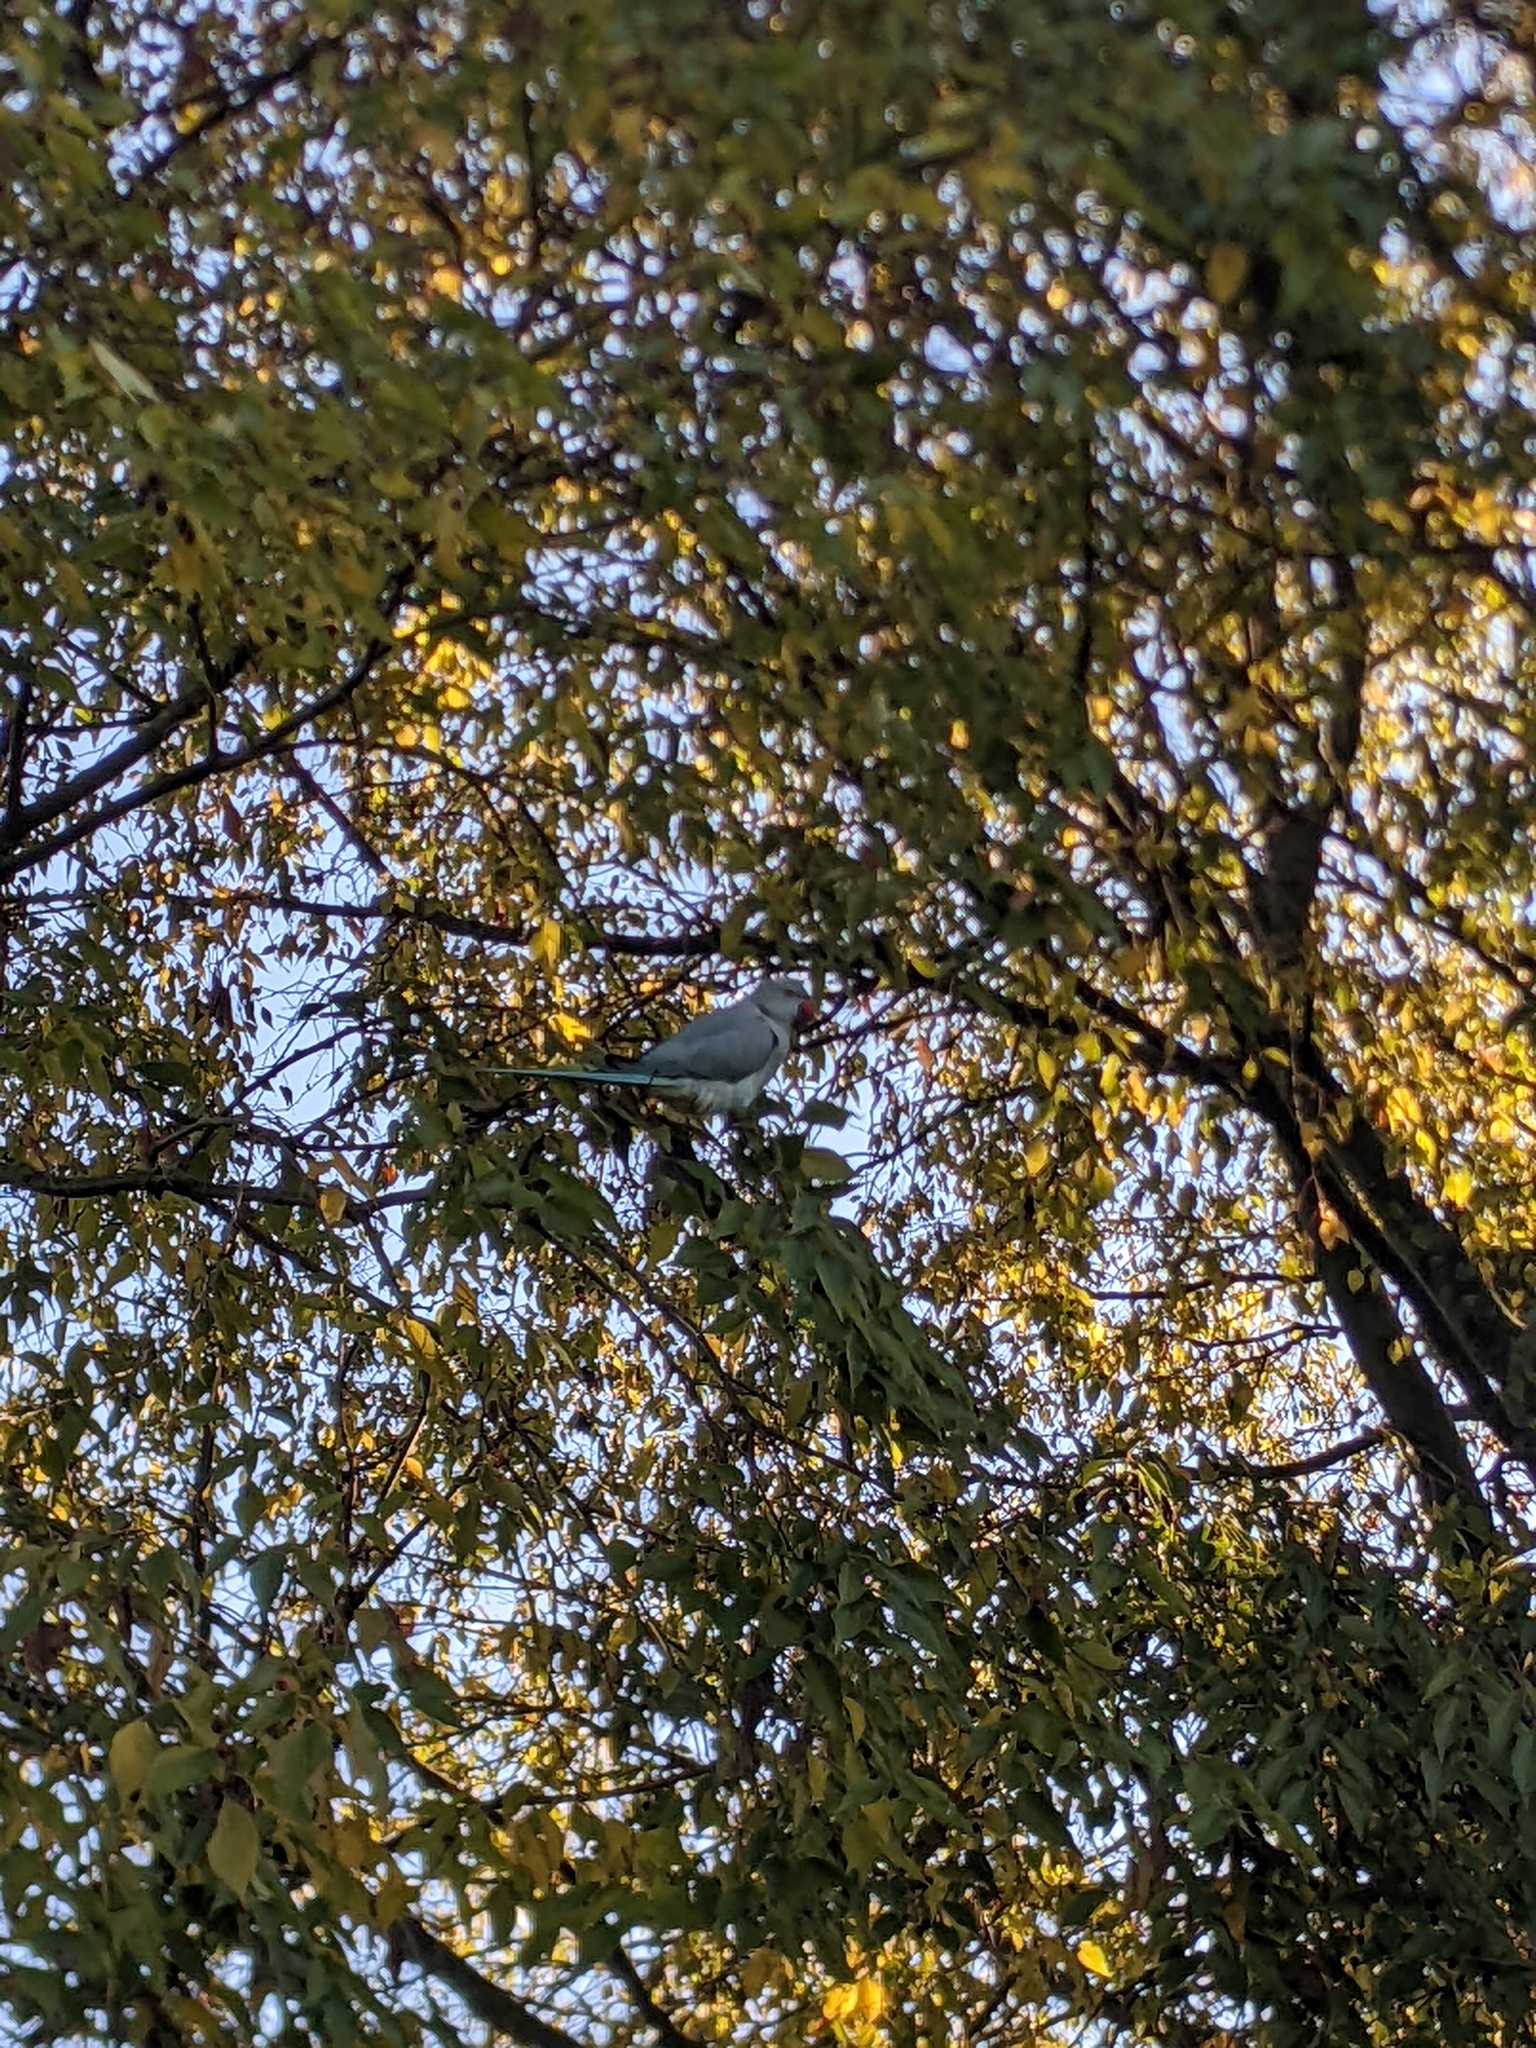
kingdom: Animalia
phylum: Chordata
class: Aves
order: Psittaciformes
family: Psittacidae
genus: Psittacula
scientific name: Psittacula krameri
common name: Rose-ringed parakeet
